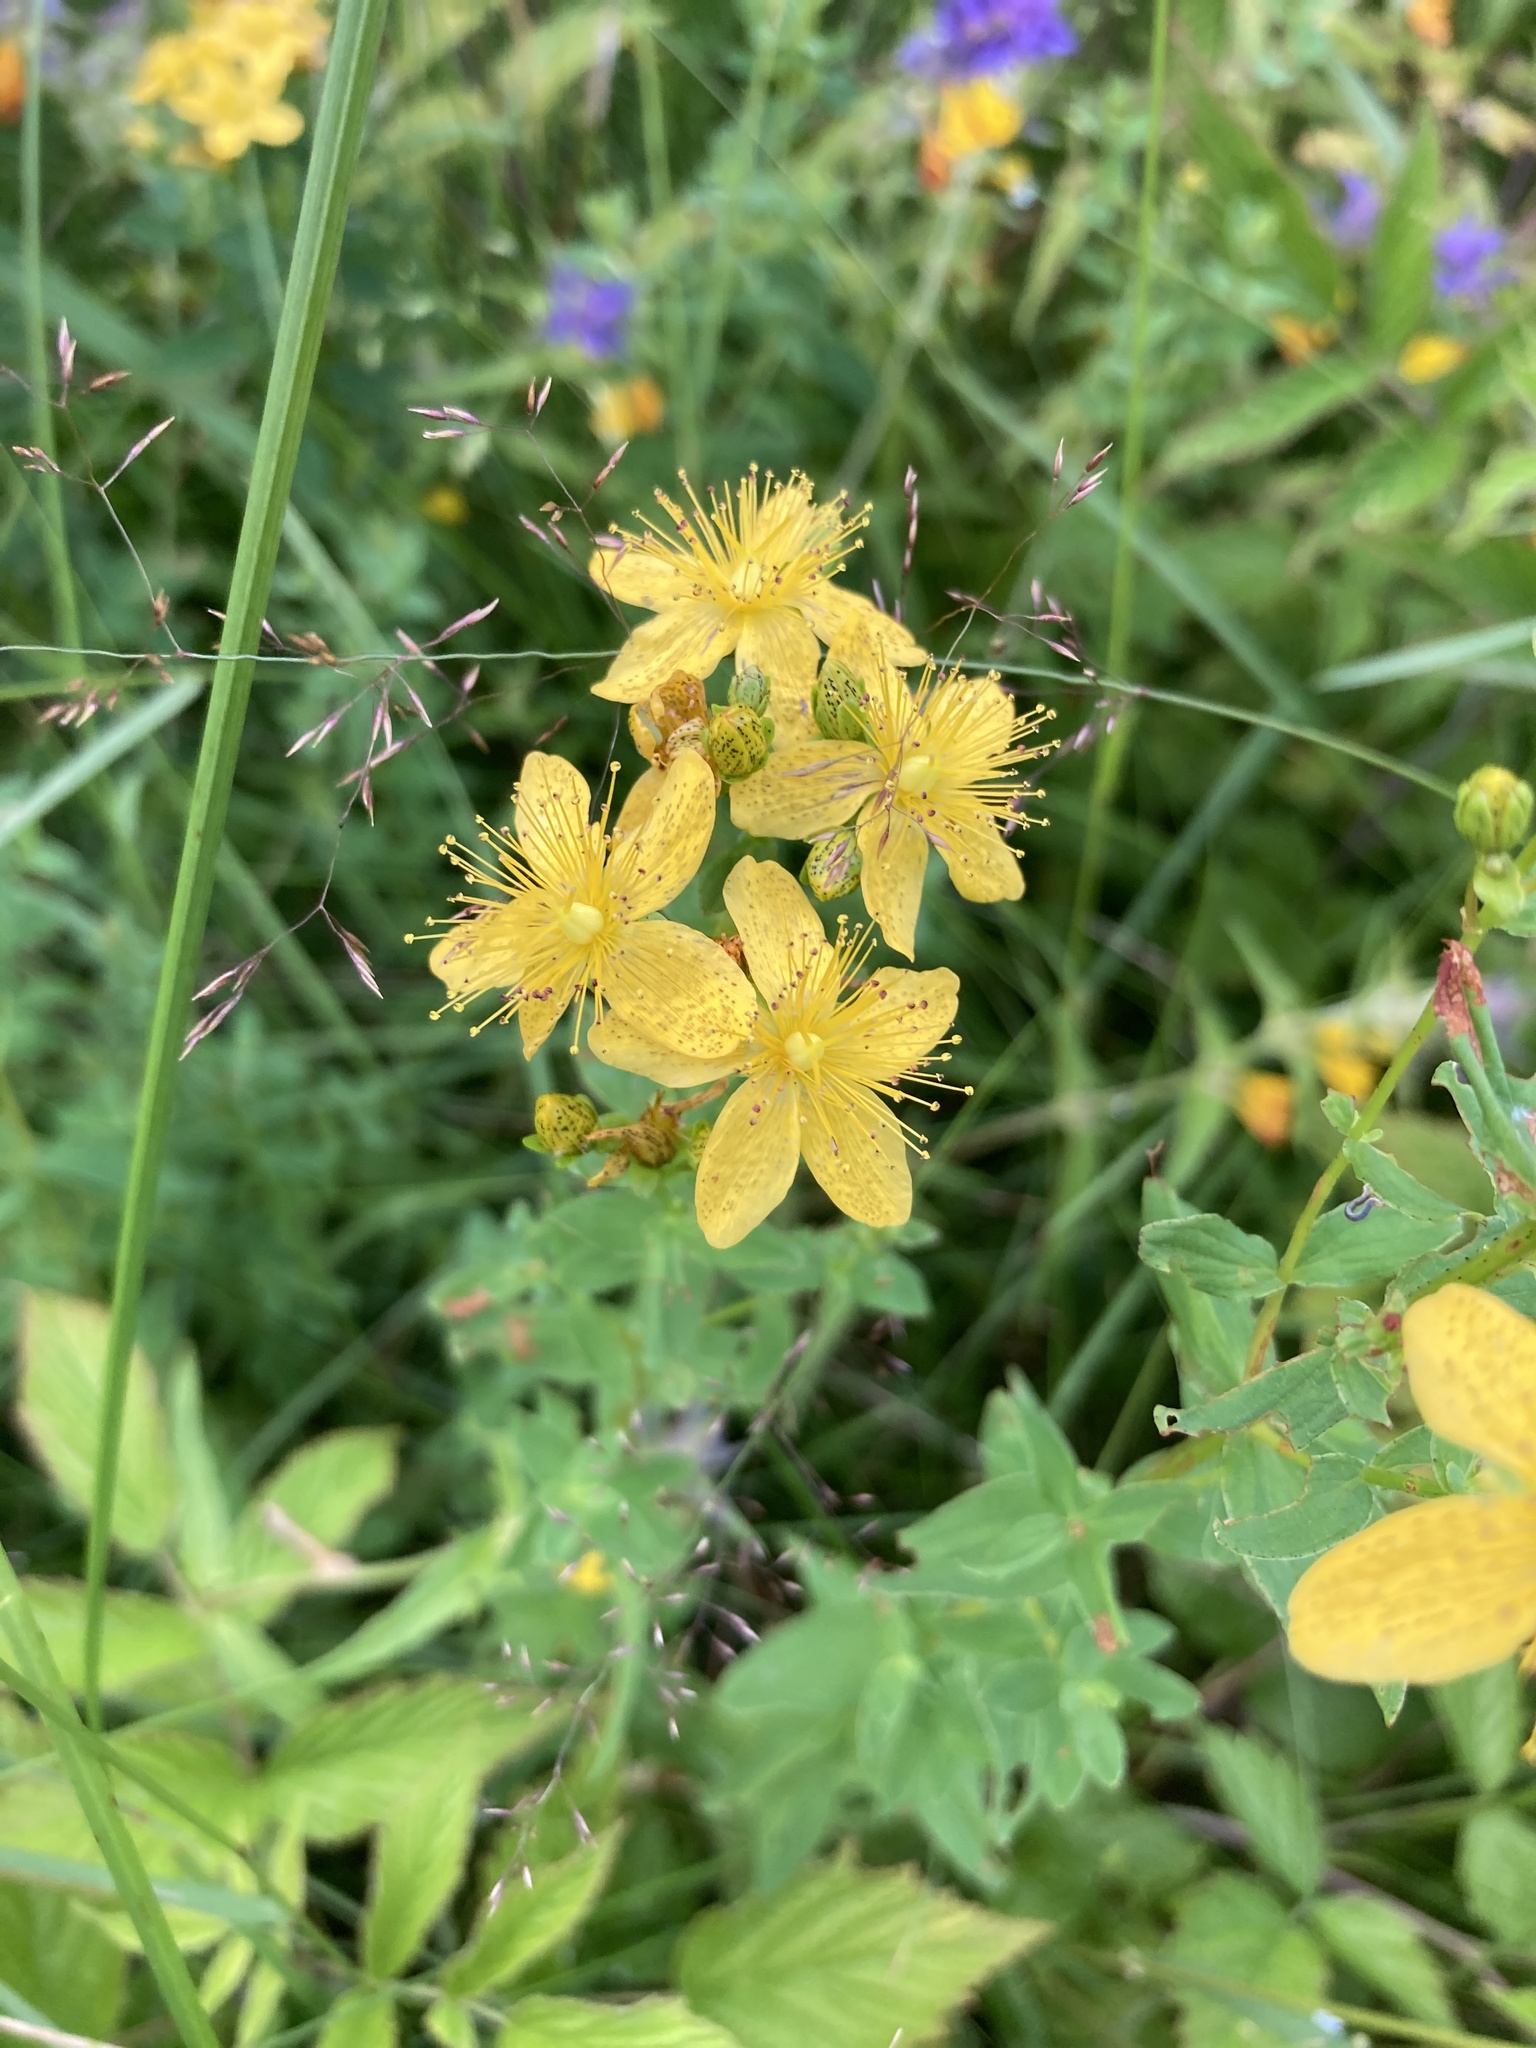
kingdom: Plantae
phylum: Tracheophyta
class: Magnoliopsida
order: Malpighiales
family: Hypericaceae
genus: Hypericum
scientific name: Hypericum maculatum
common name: Imperforate st. john's-wort
